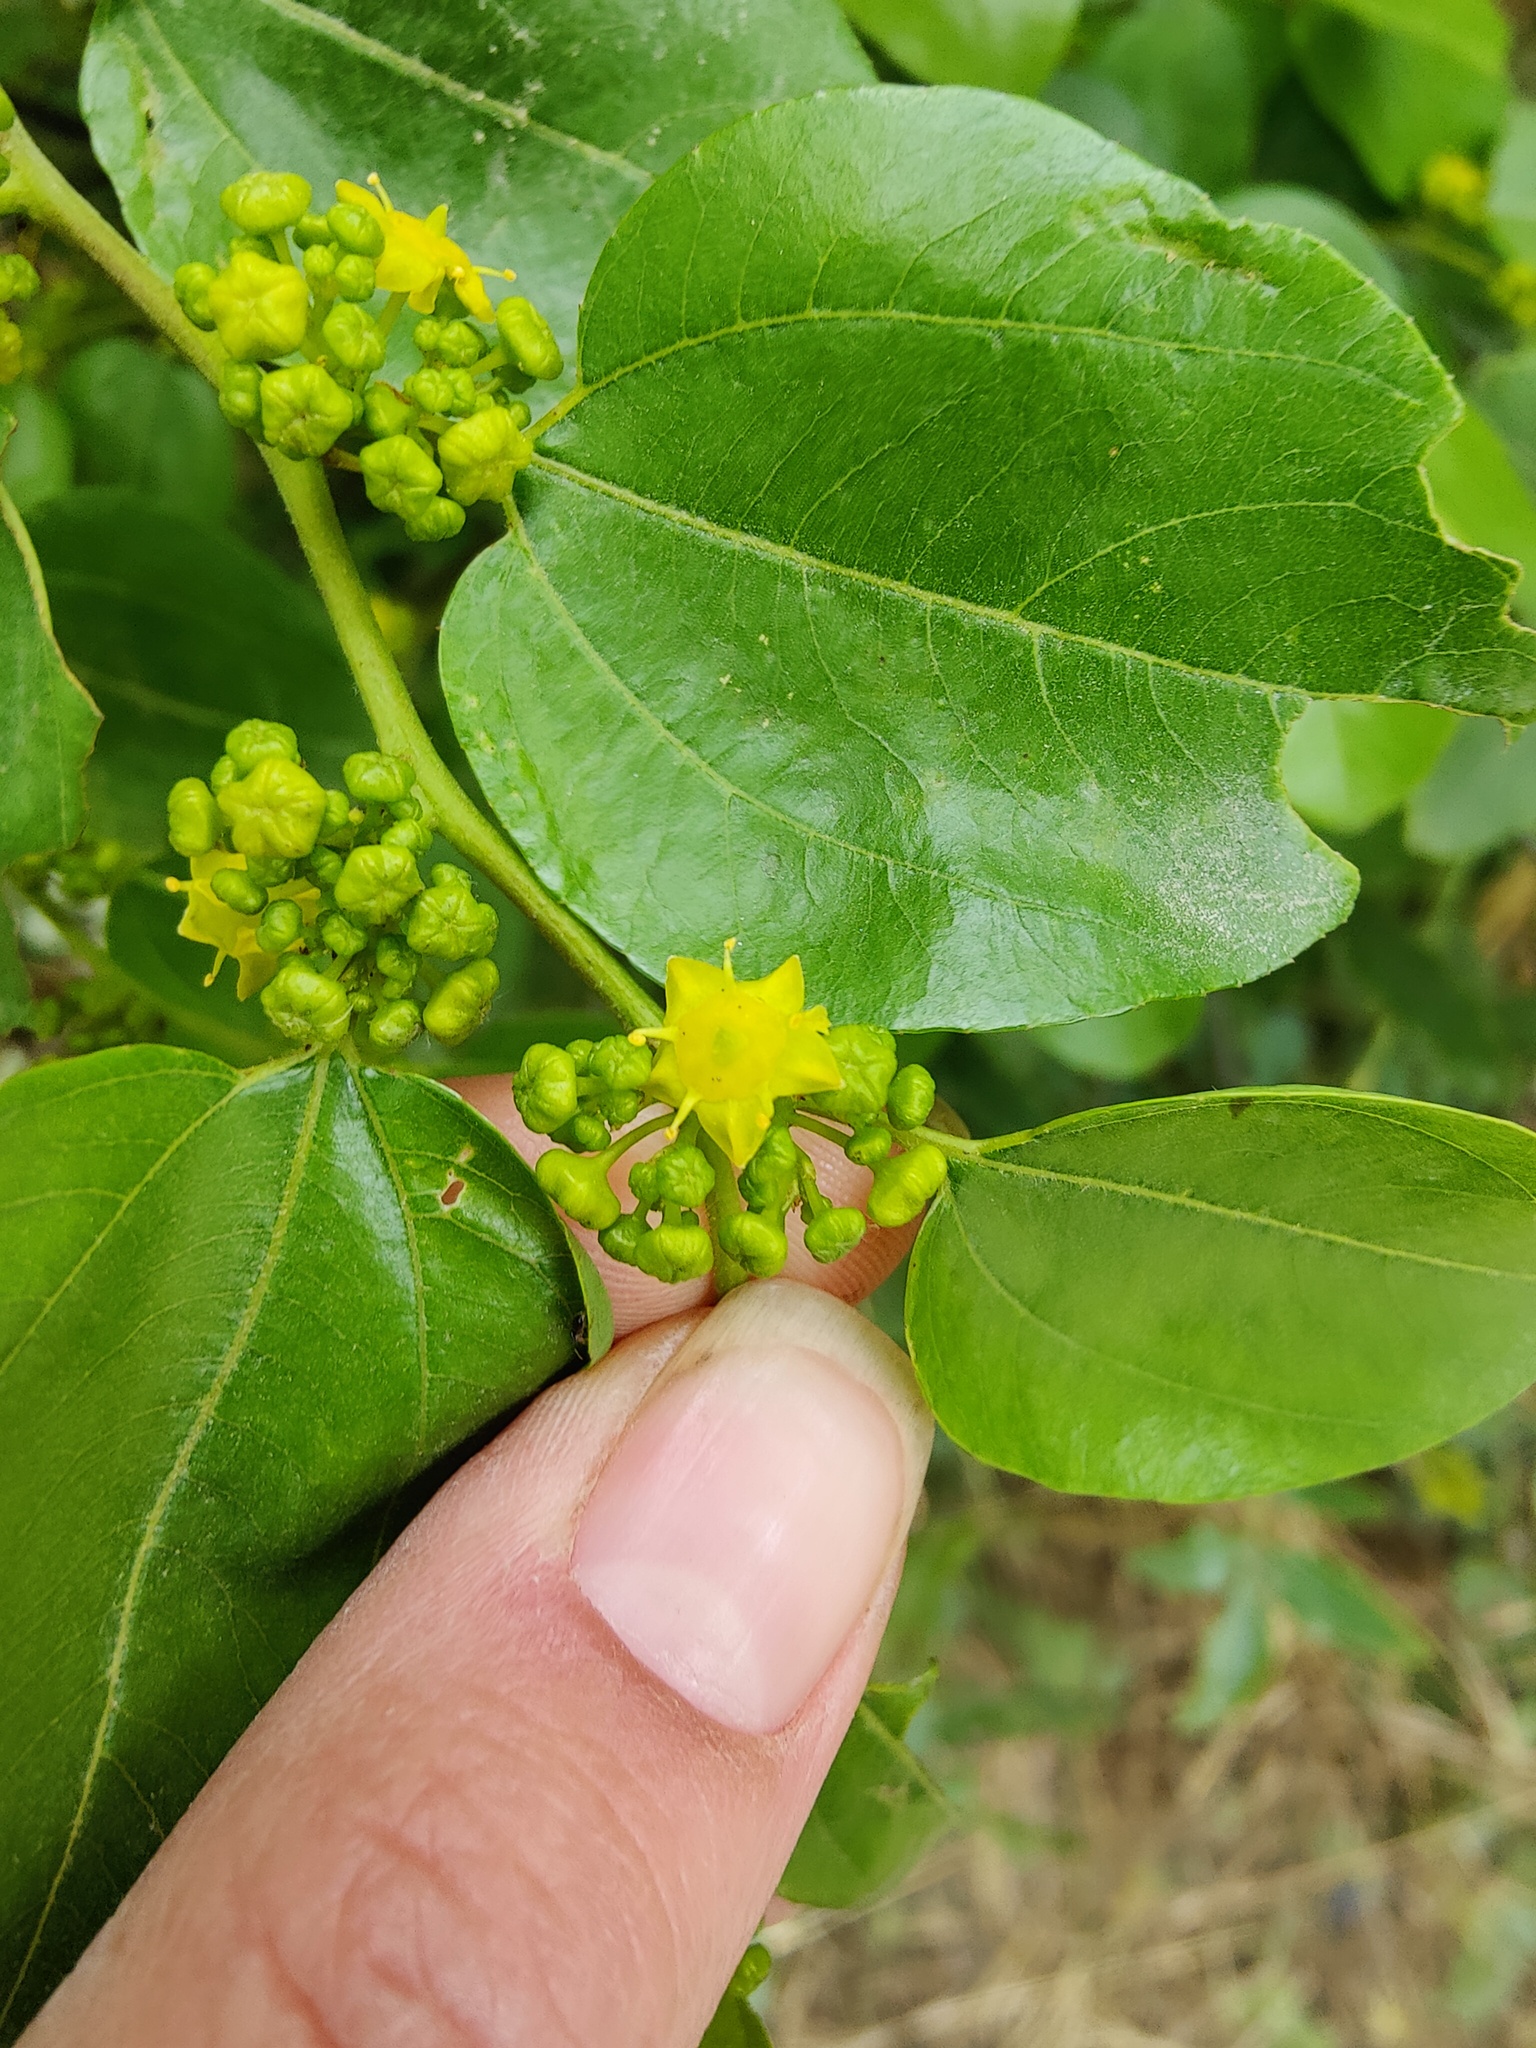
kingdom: Plantae
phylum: Tracheophyta
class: Magnoliopsida
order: Rosales
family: Rhamnaceae
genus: Paliurus
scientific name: Paliurus spina-christi
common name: Jeruselem thorn
